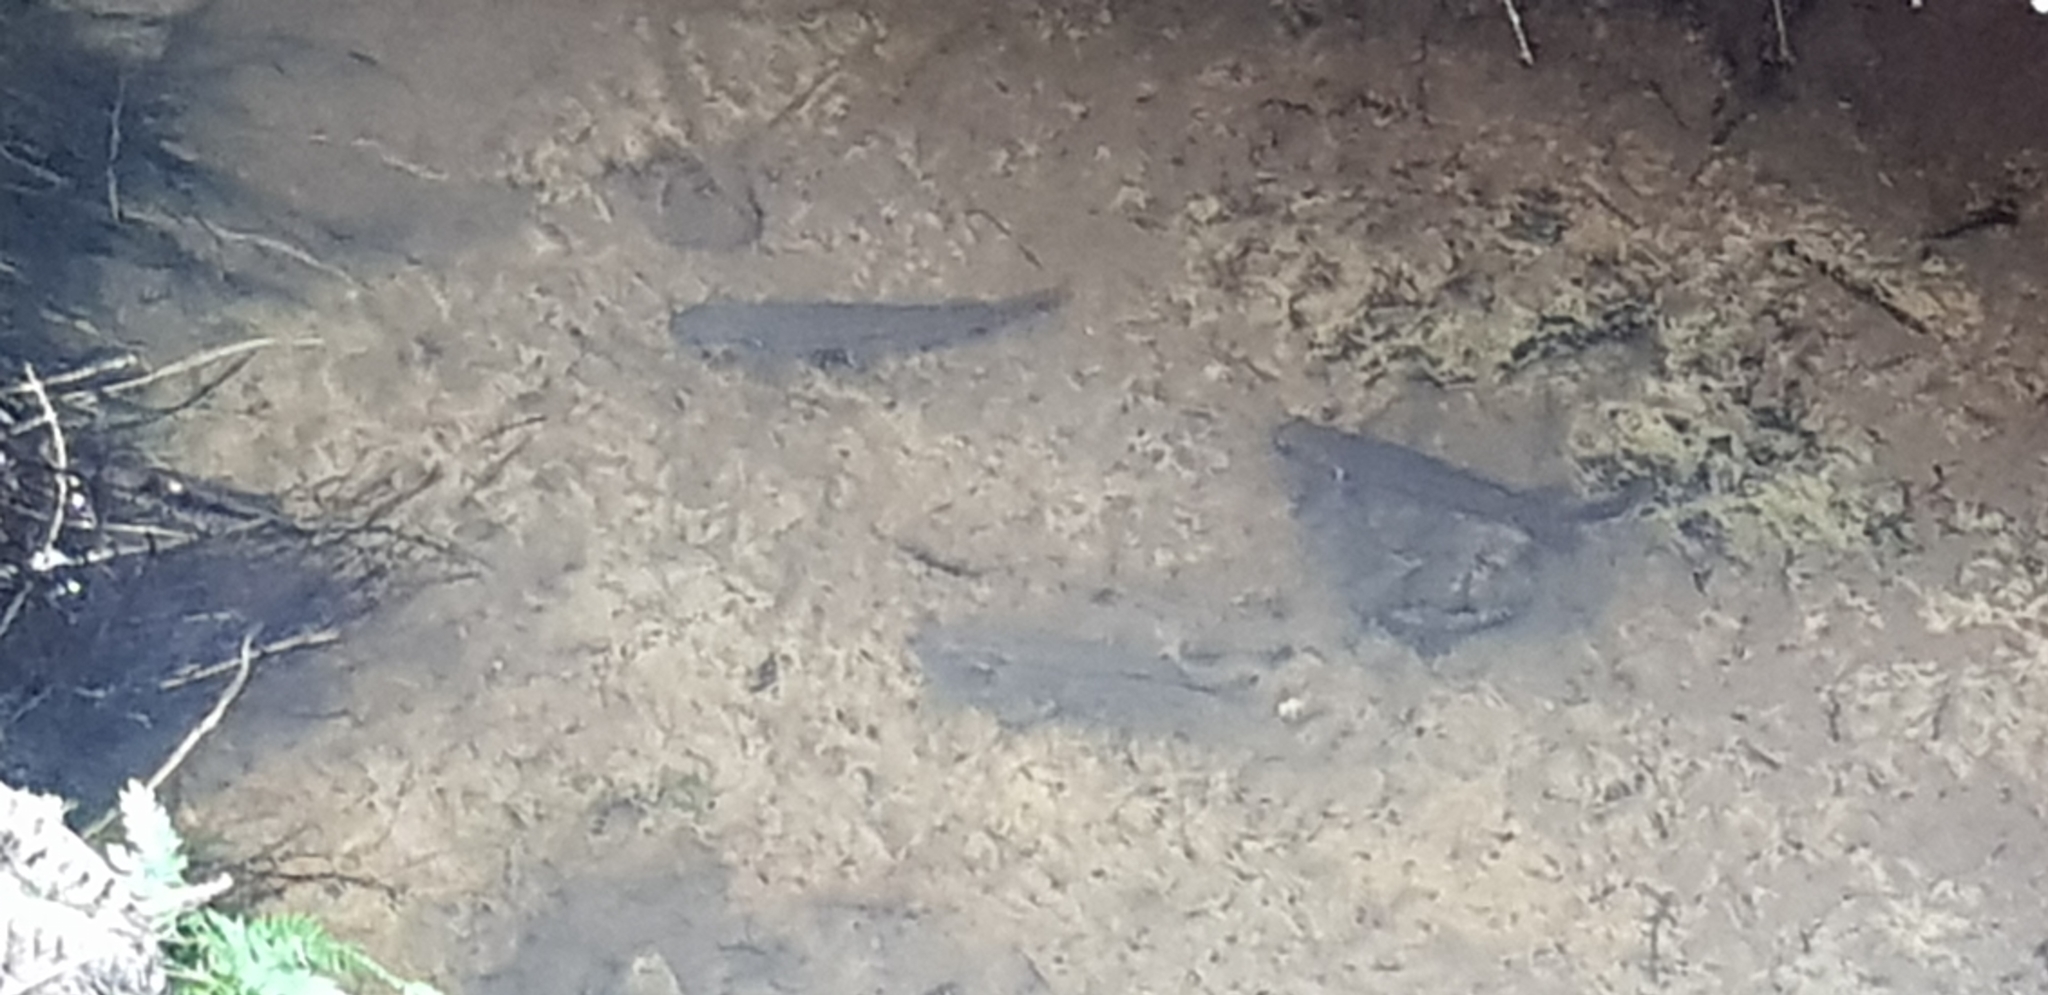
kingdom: Animalia
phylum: Chordata
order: Osmeriformes
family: Galaxiidae
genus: Galaxias
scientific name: Galaxias fasciatus
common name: Banded kokopu
